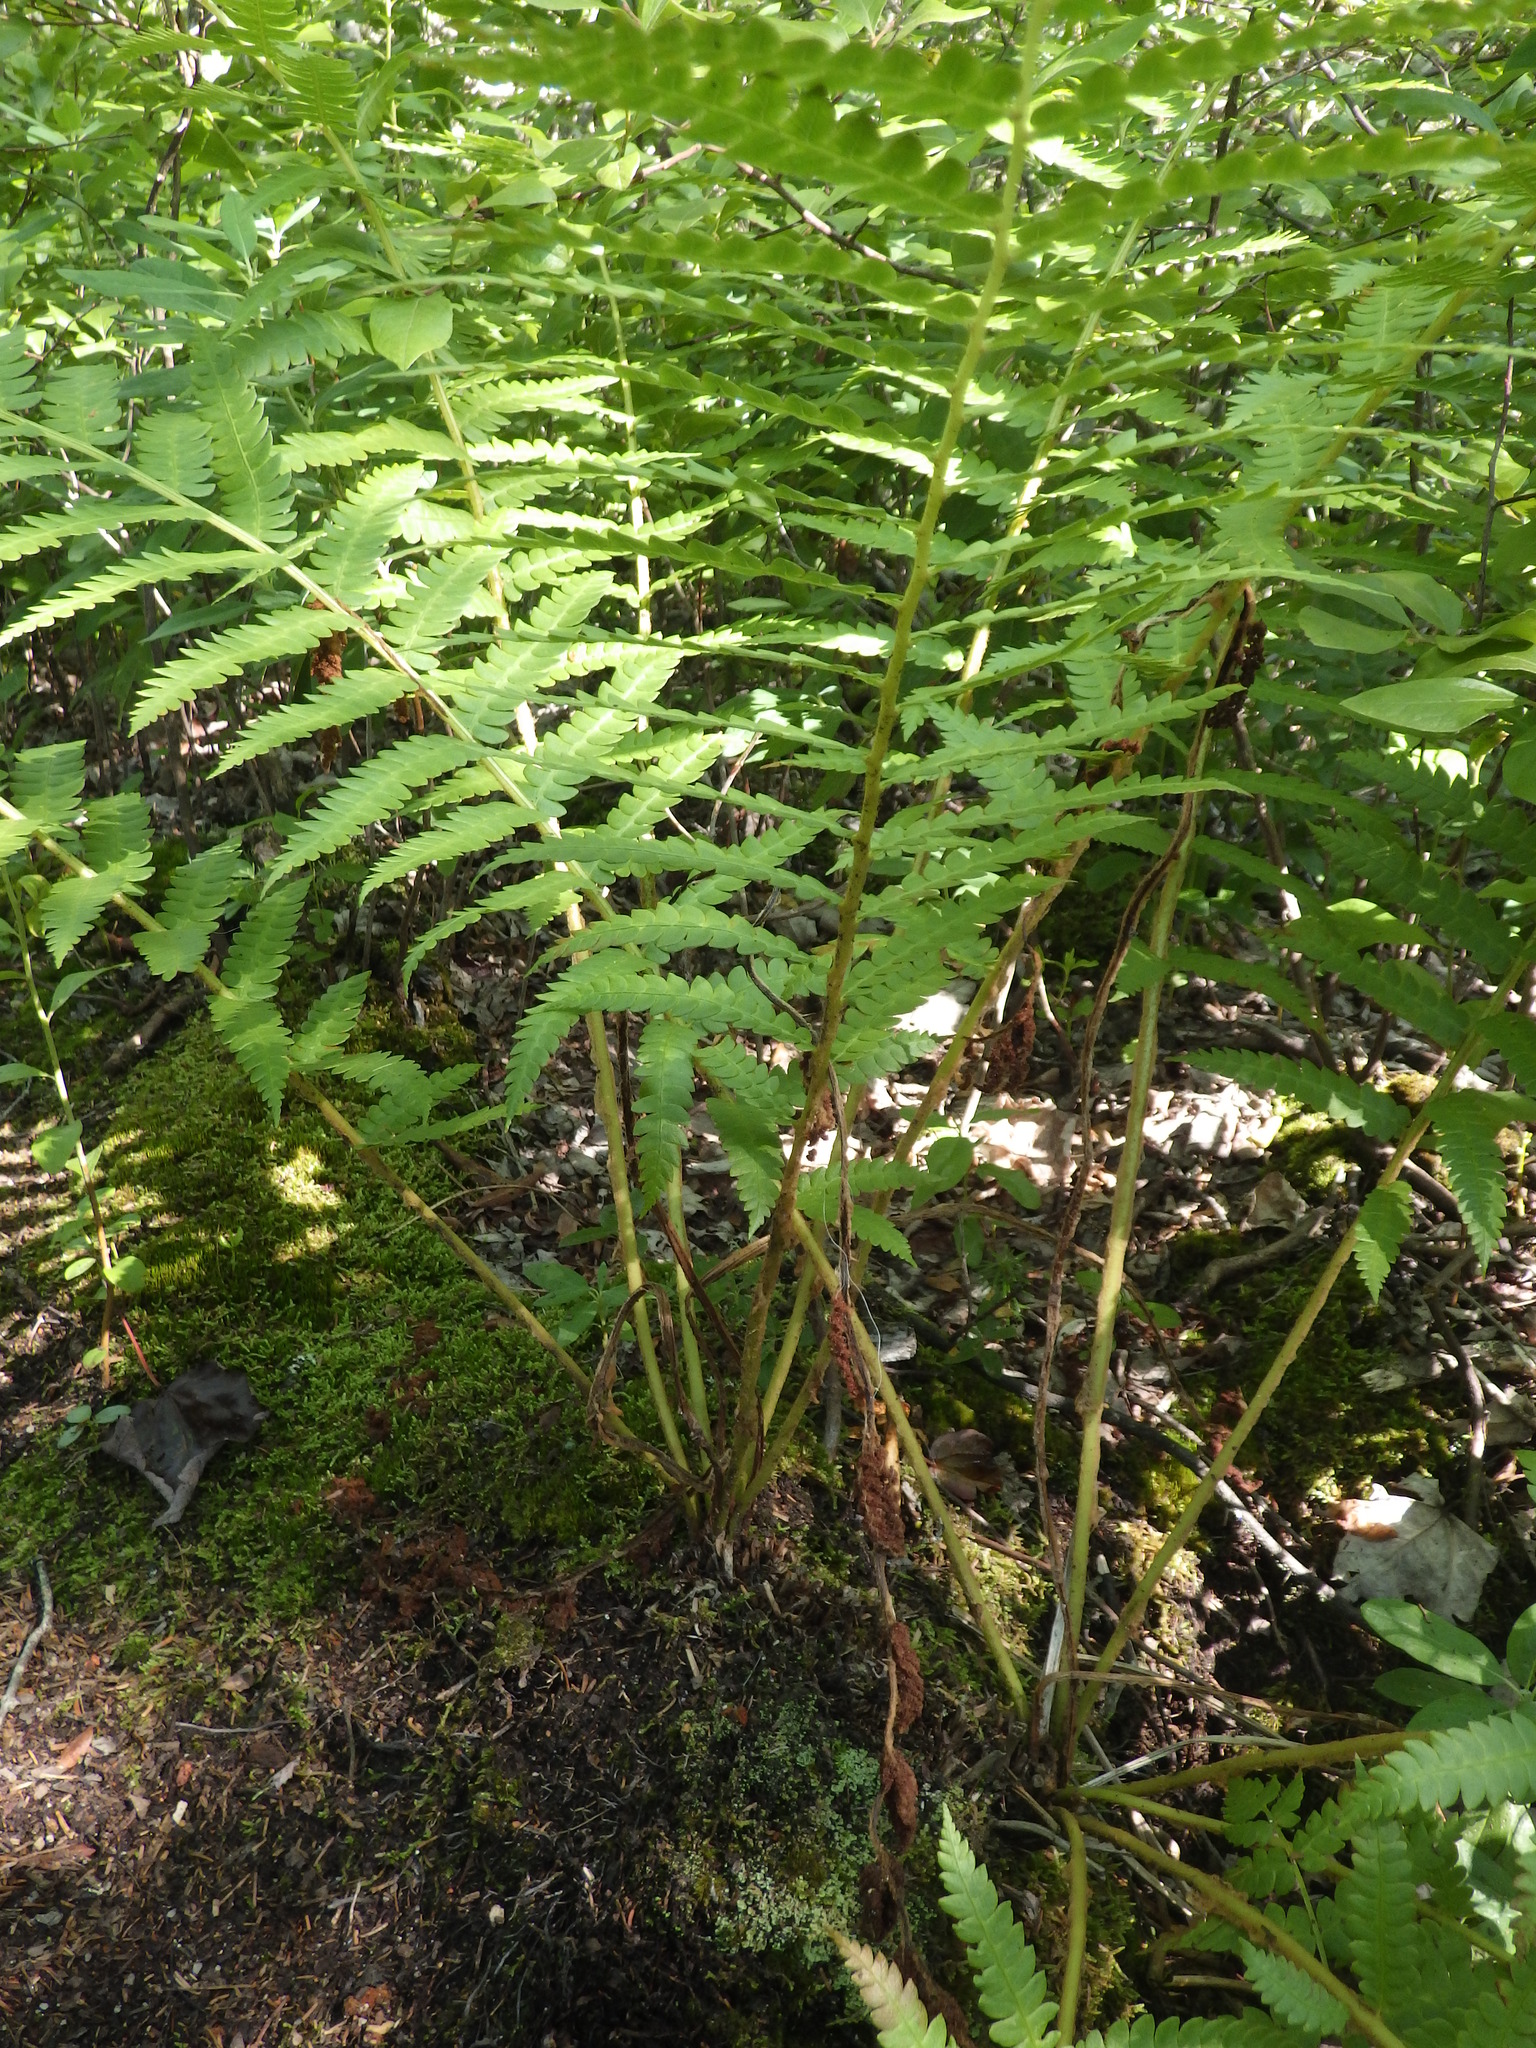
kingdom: Plantae
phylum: Tracheophyta
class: Polypodiopsida
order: Osmundales
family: Osmundaceae
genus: Osmundastrum
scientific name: Osmundastrum cinnamomeum
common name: Cinnamon fern
